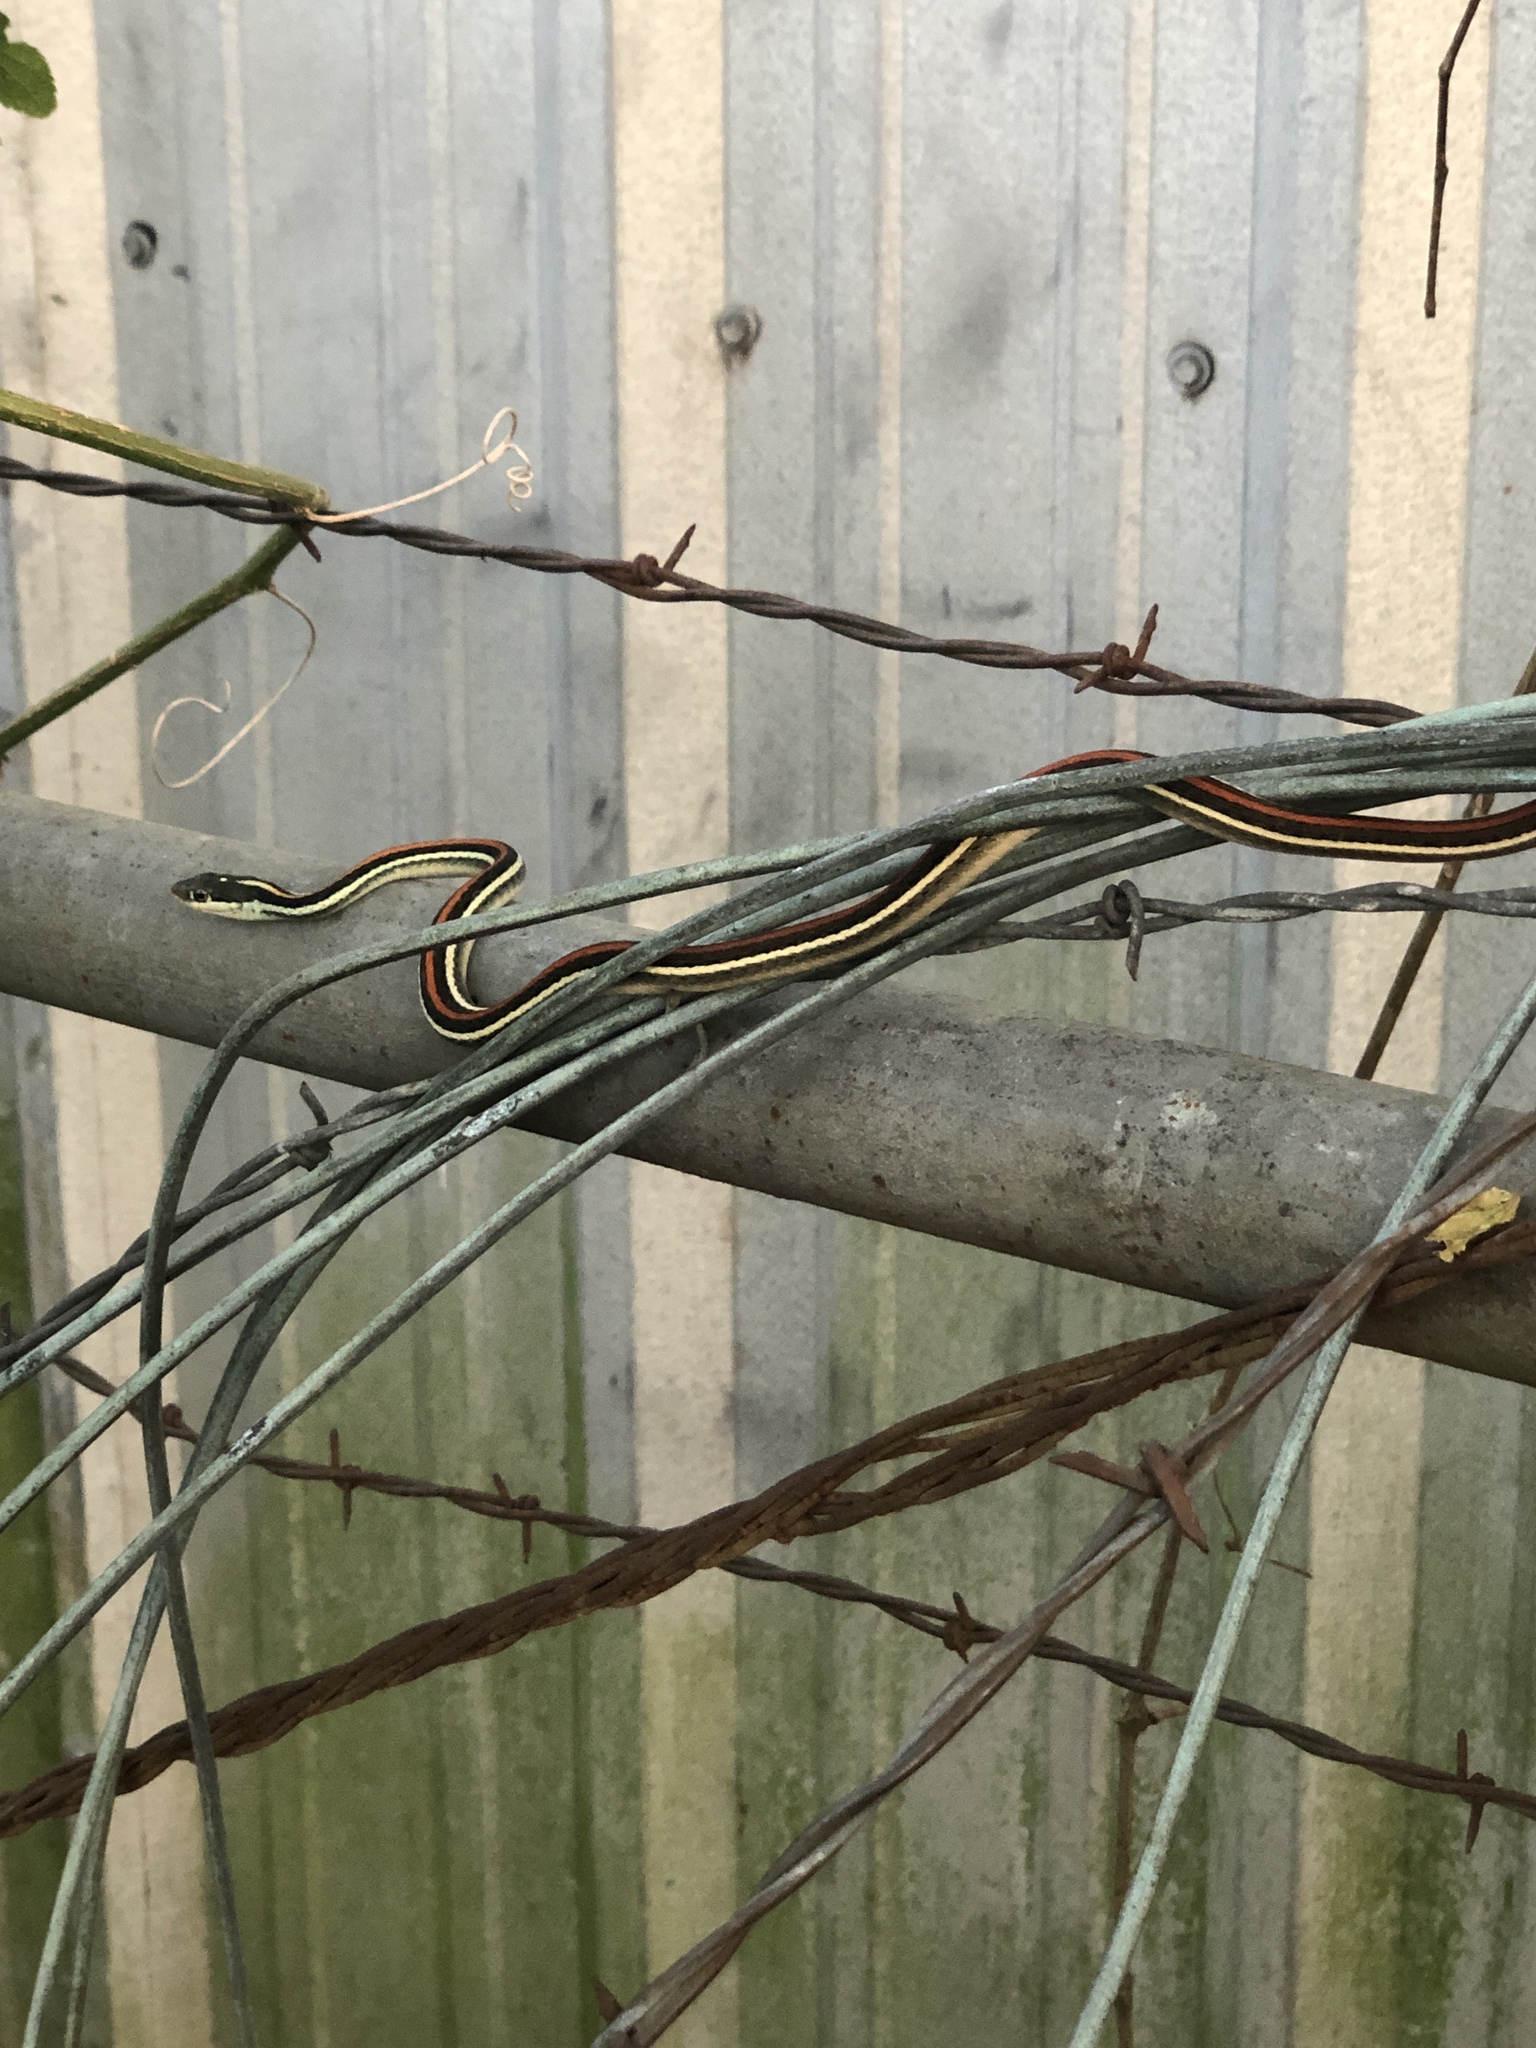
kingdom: Animalia
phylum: Chordata
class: Squamata
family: Colubridae
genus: Thamnophis
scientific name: Thamnophis proximus
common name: Western ribbon snake
